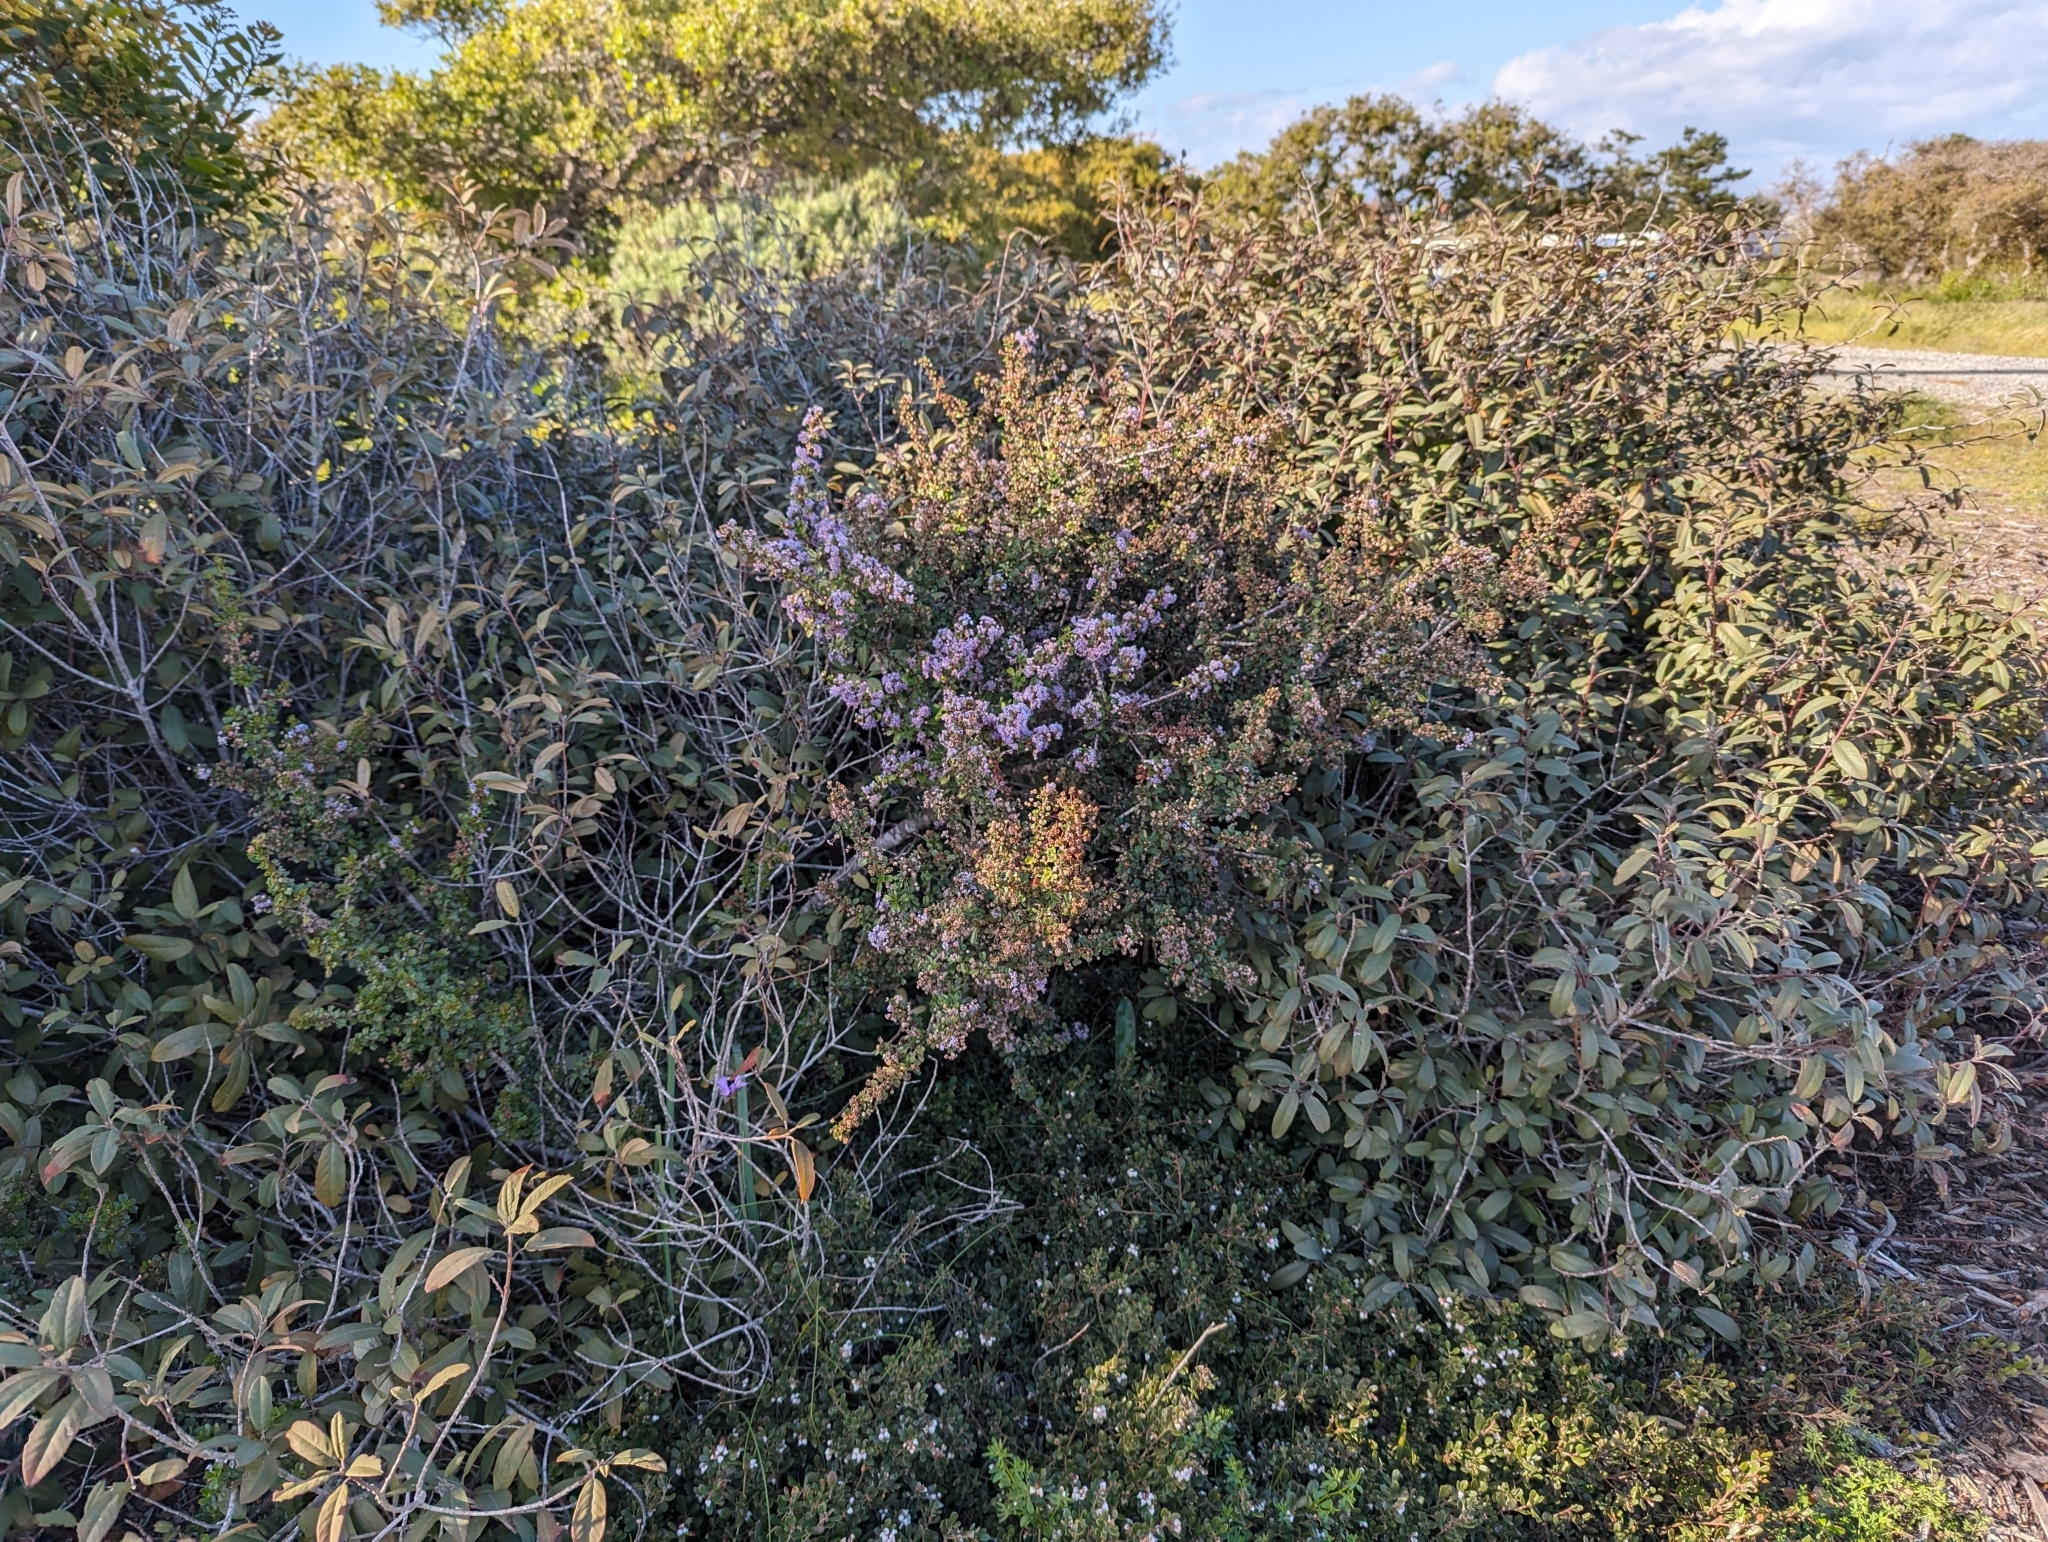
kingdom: Plantae
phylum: Tracheophyta
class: Magnoliopsida
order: Rosales
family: Rhamnaceae
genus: Ceanothus
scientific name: Ceanothus cuneatus
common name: Cuneate ceanothus
